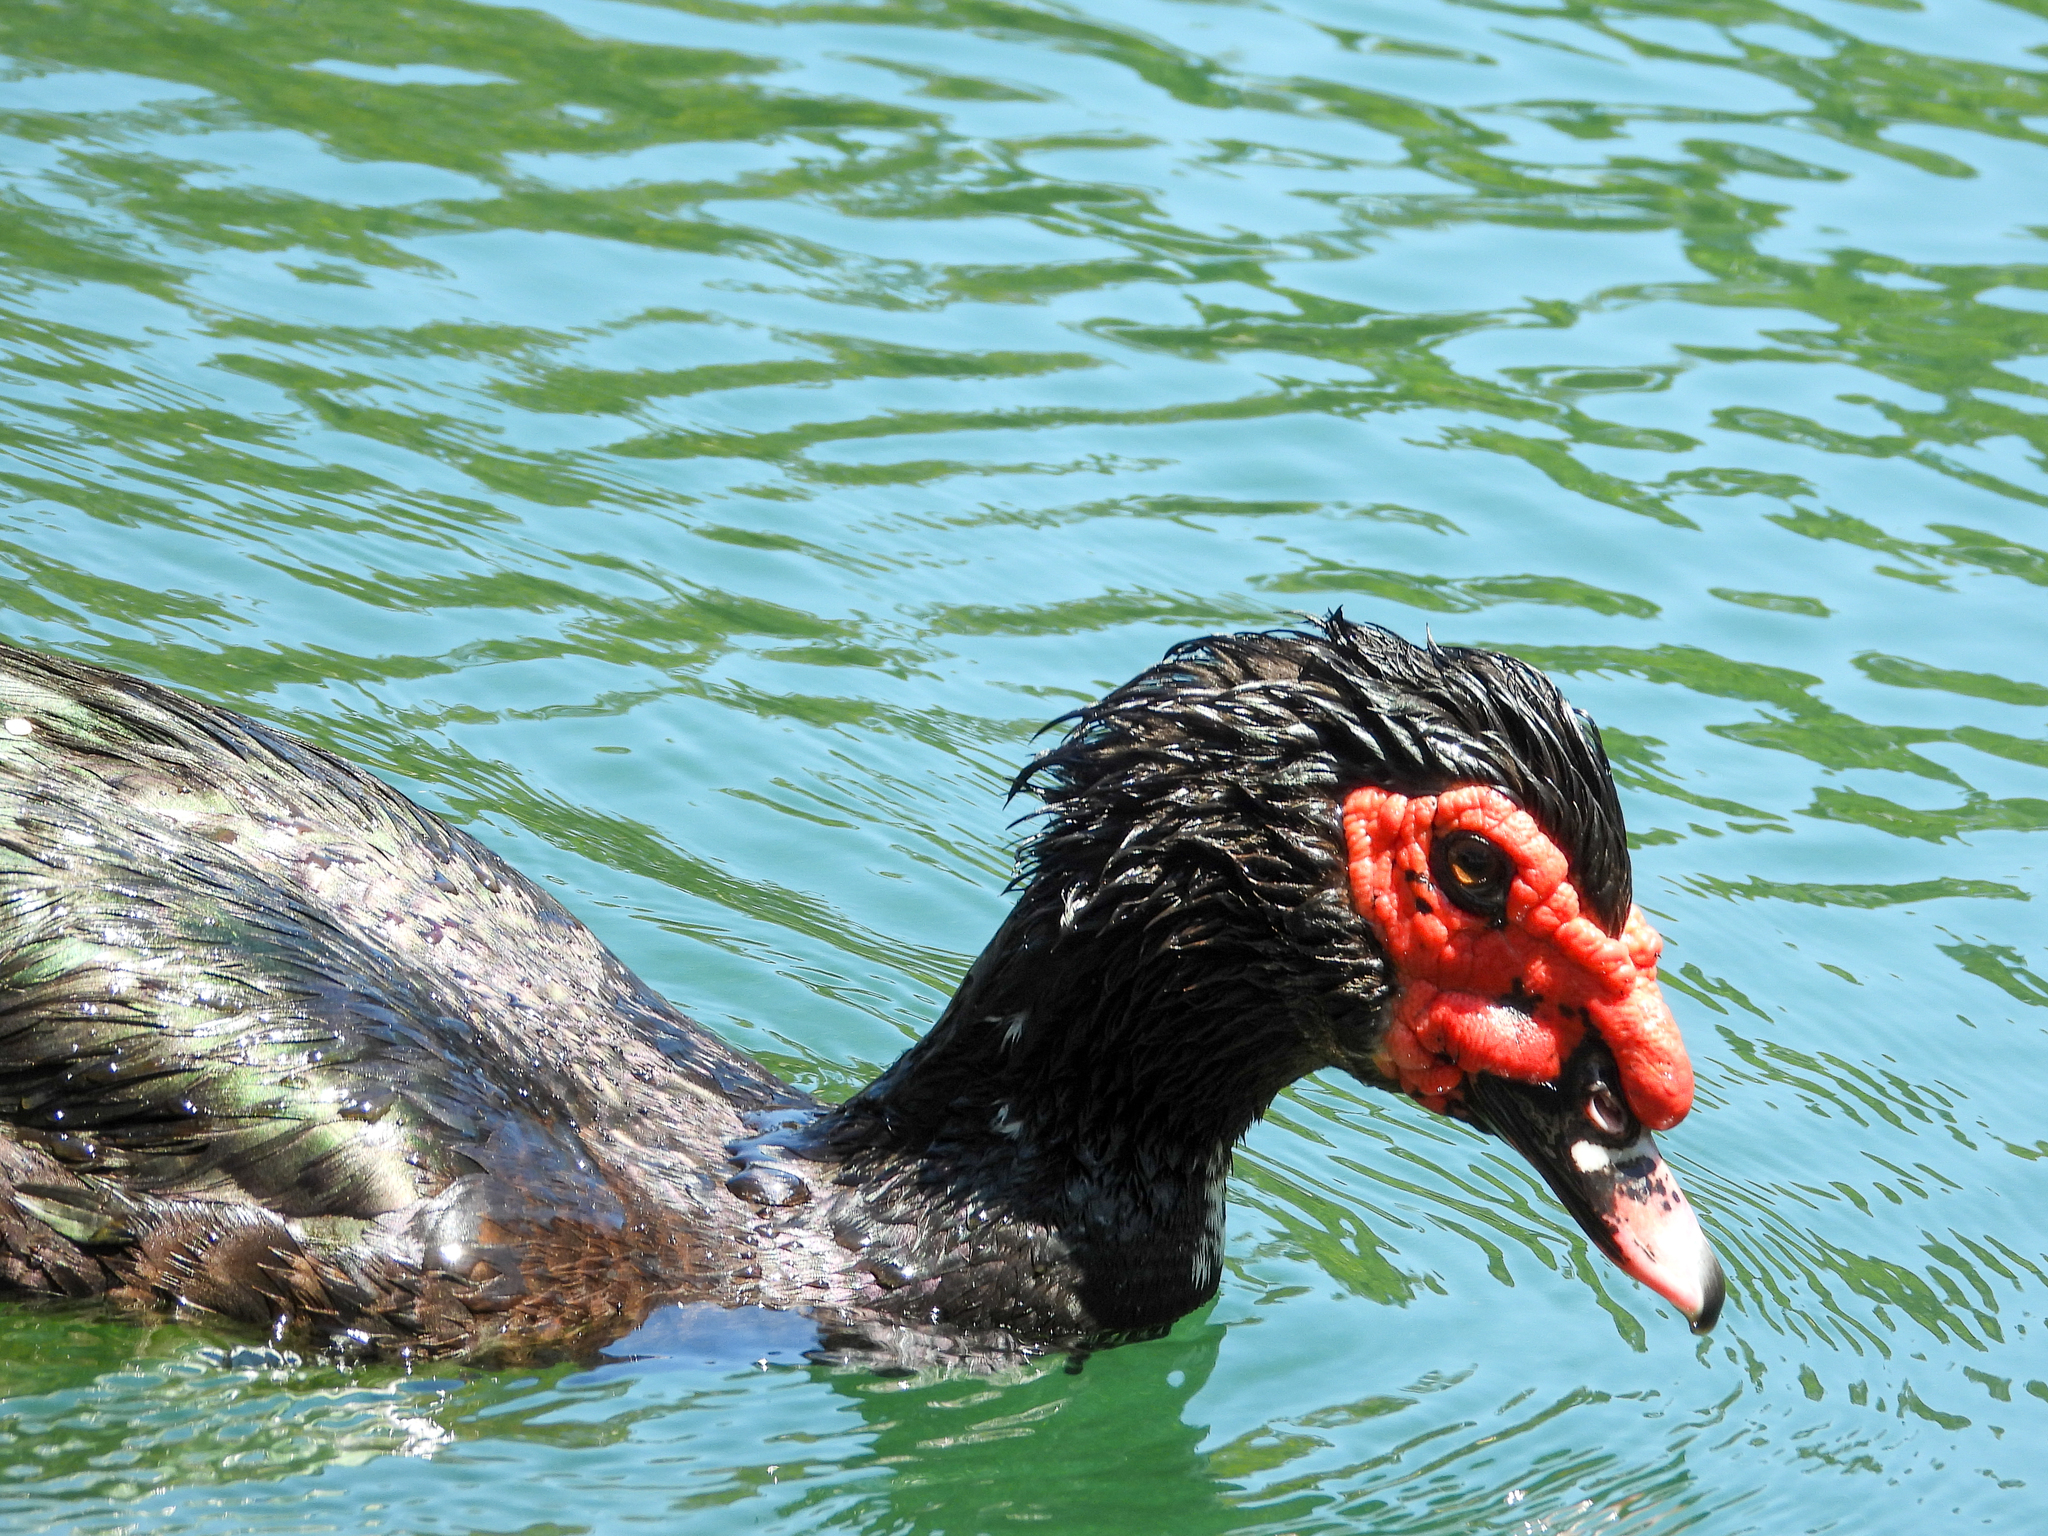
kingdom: Animalia
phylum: Chordata
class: Aves
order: Anseriformes
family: Anatidae
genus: Cairina
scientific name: Cairina moschata
